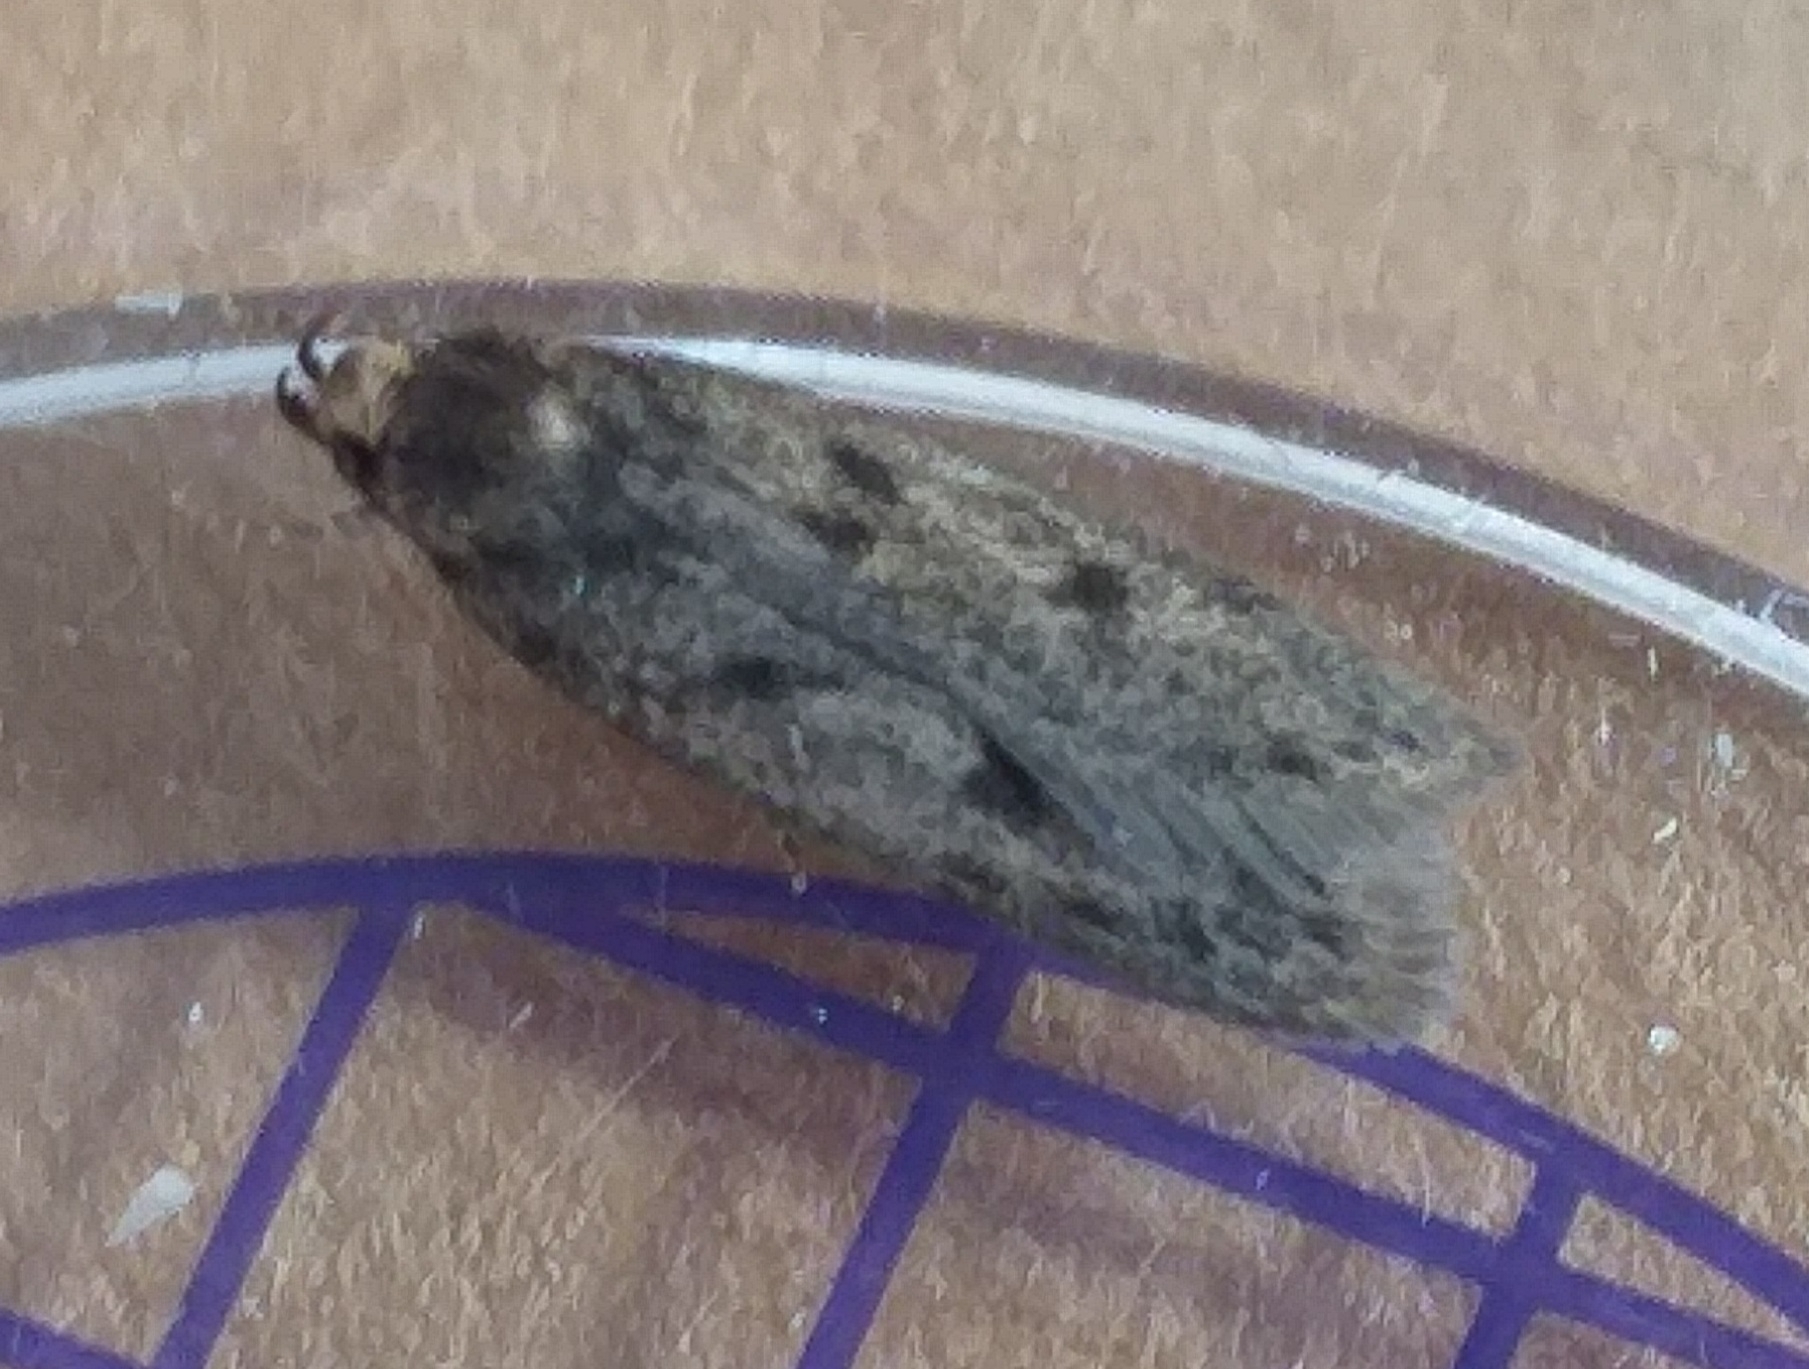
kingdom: Animalia
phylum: Arthropoda
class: Insecta
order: Lepidoptera
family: Oecophoridae
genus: Hofmannophila
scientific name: Hofmannophila pseudospretella
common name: Brown house moth
